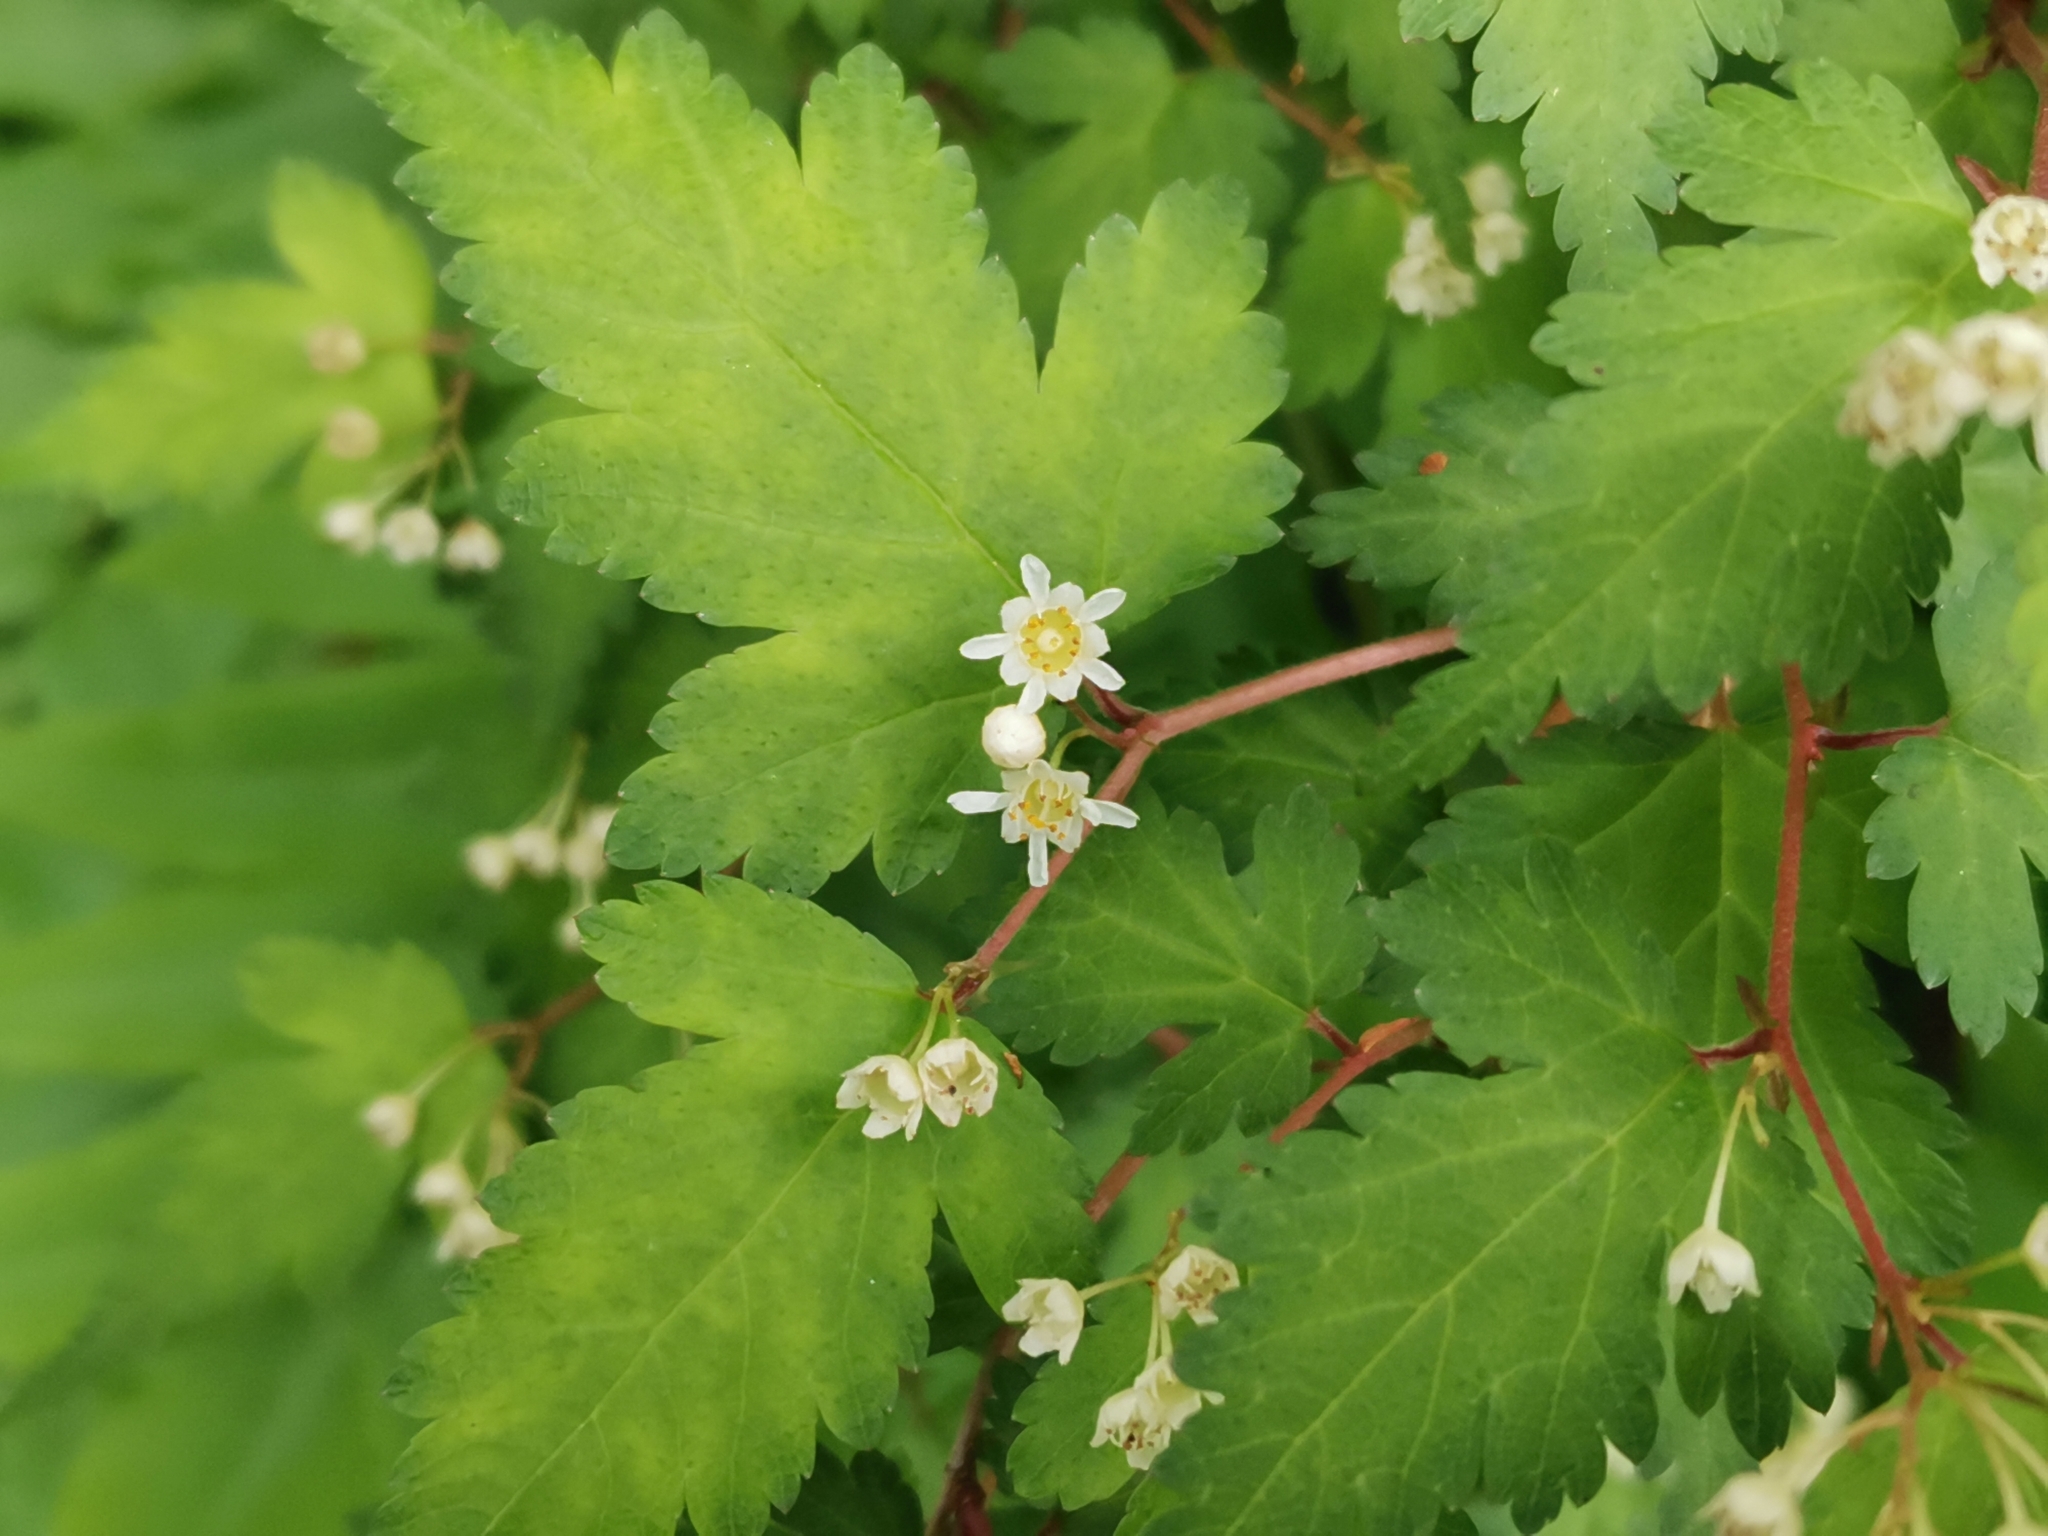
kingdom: Plantae
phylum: Tracheophyta
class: Magnoliopsida
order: Rosales
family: Rosaceae
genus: Neillia
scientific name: Neillia incisa
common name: Laceshrub
